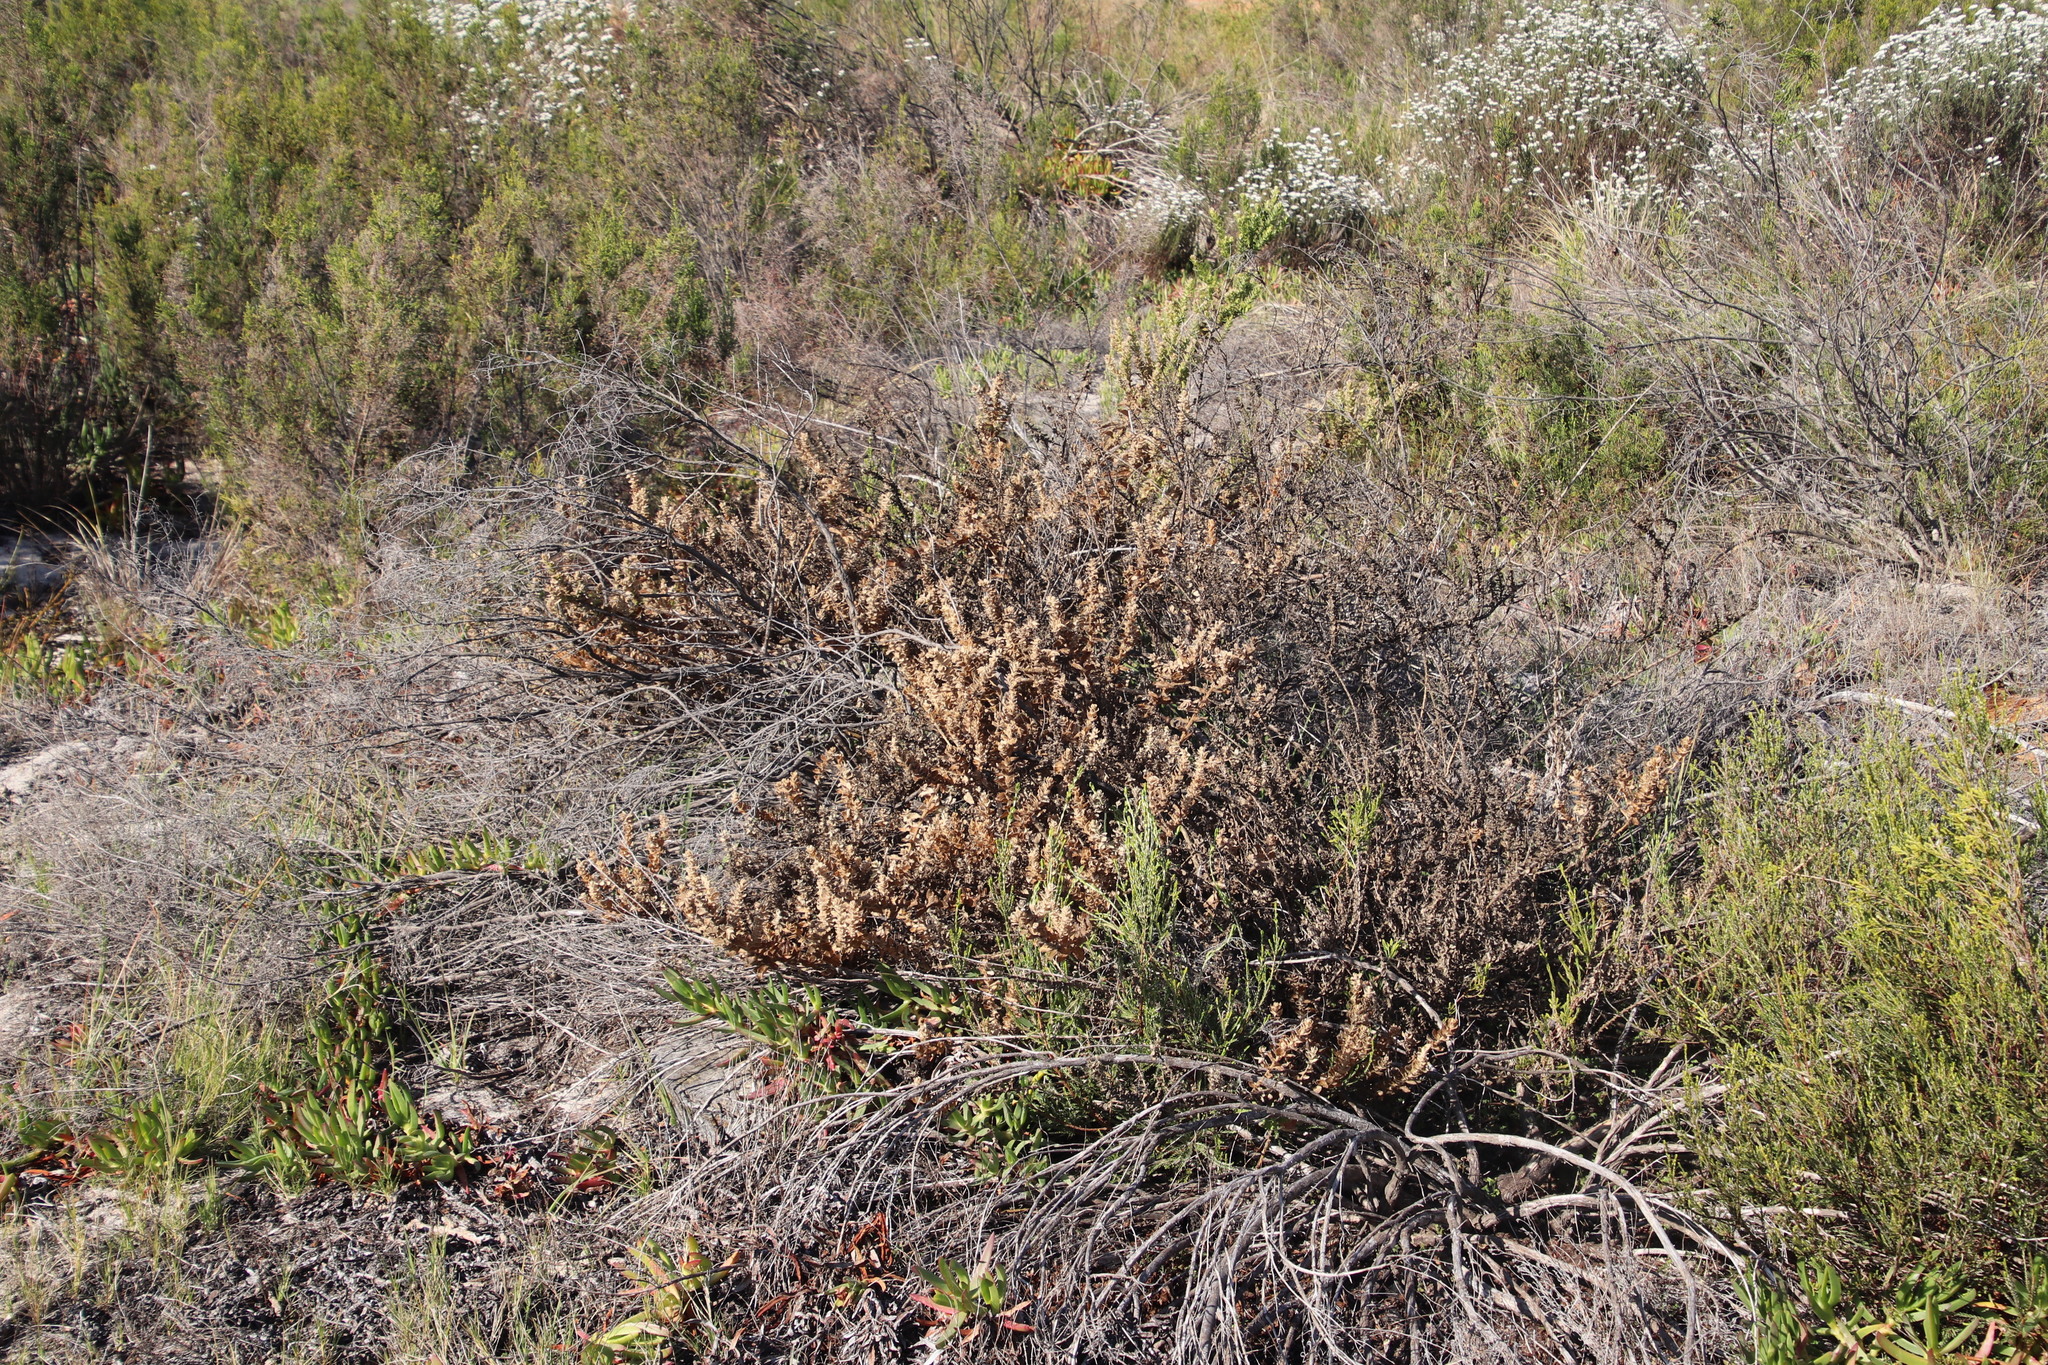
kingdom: Plantae
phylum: Tracheophyta
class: Magnoliopsida
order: Lamiales
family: Scrophulariaceae
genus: Oftia
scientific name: Oftia africana
